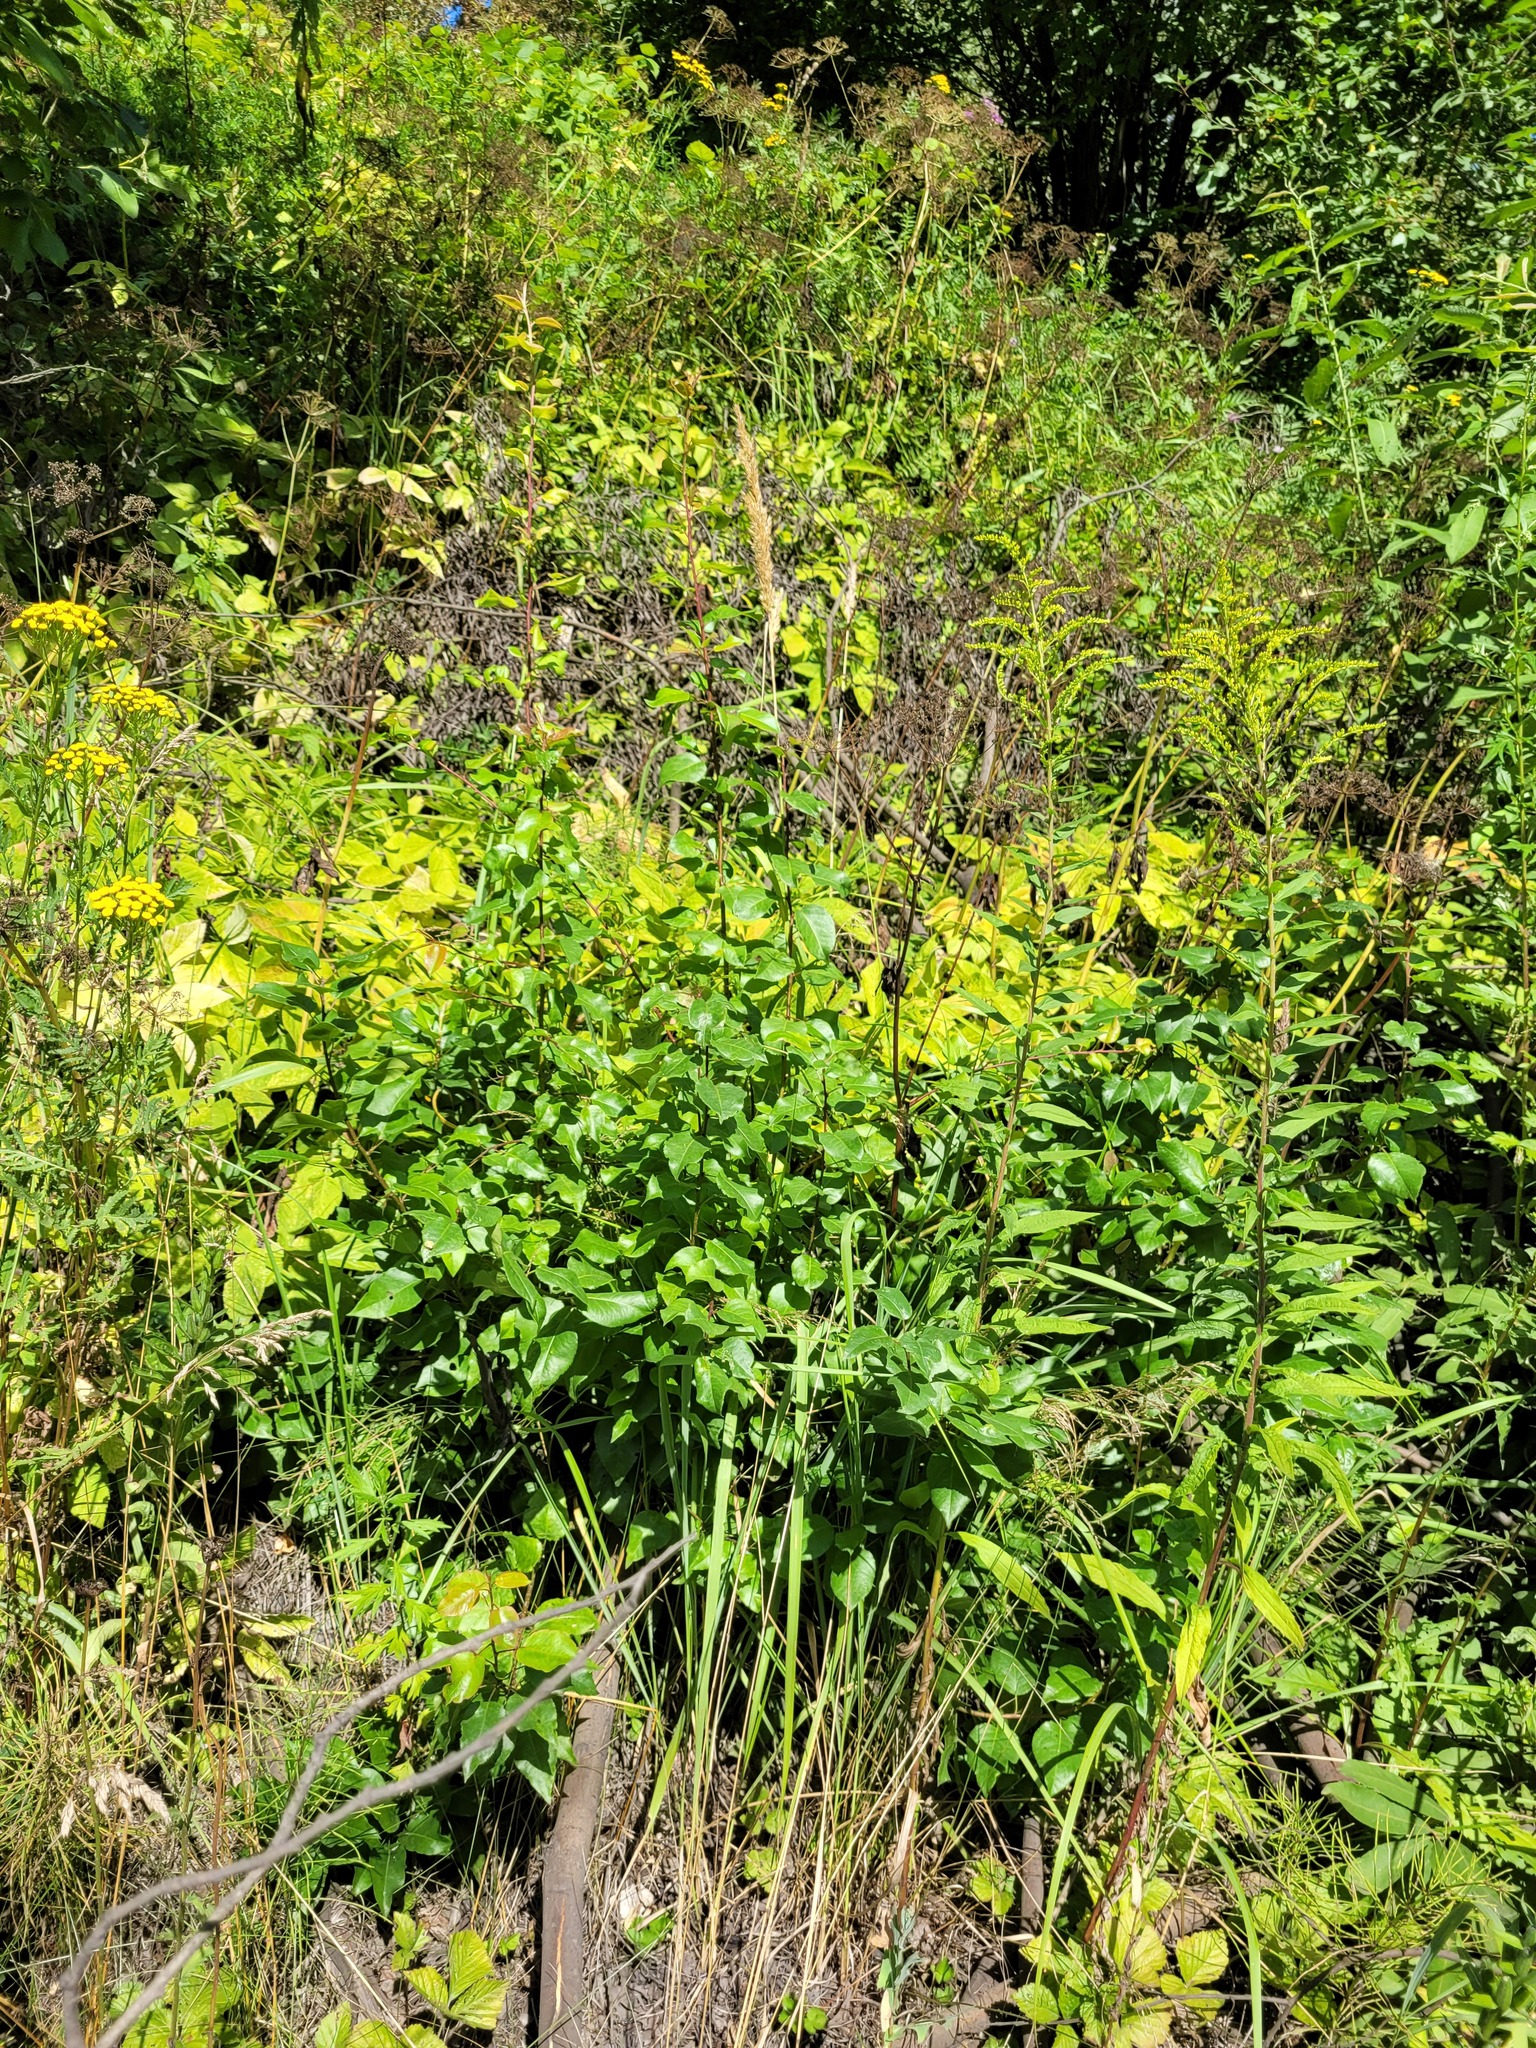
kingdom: Plantae
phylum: Tracheophyta
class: Magnoliopsida
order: Rosales
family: Rosaceae
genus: Pyrus
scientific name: Pyrus communis
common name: Pear
